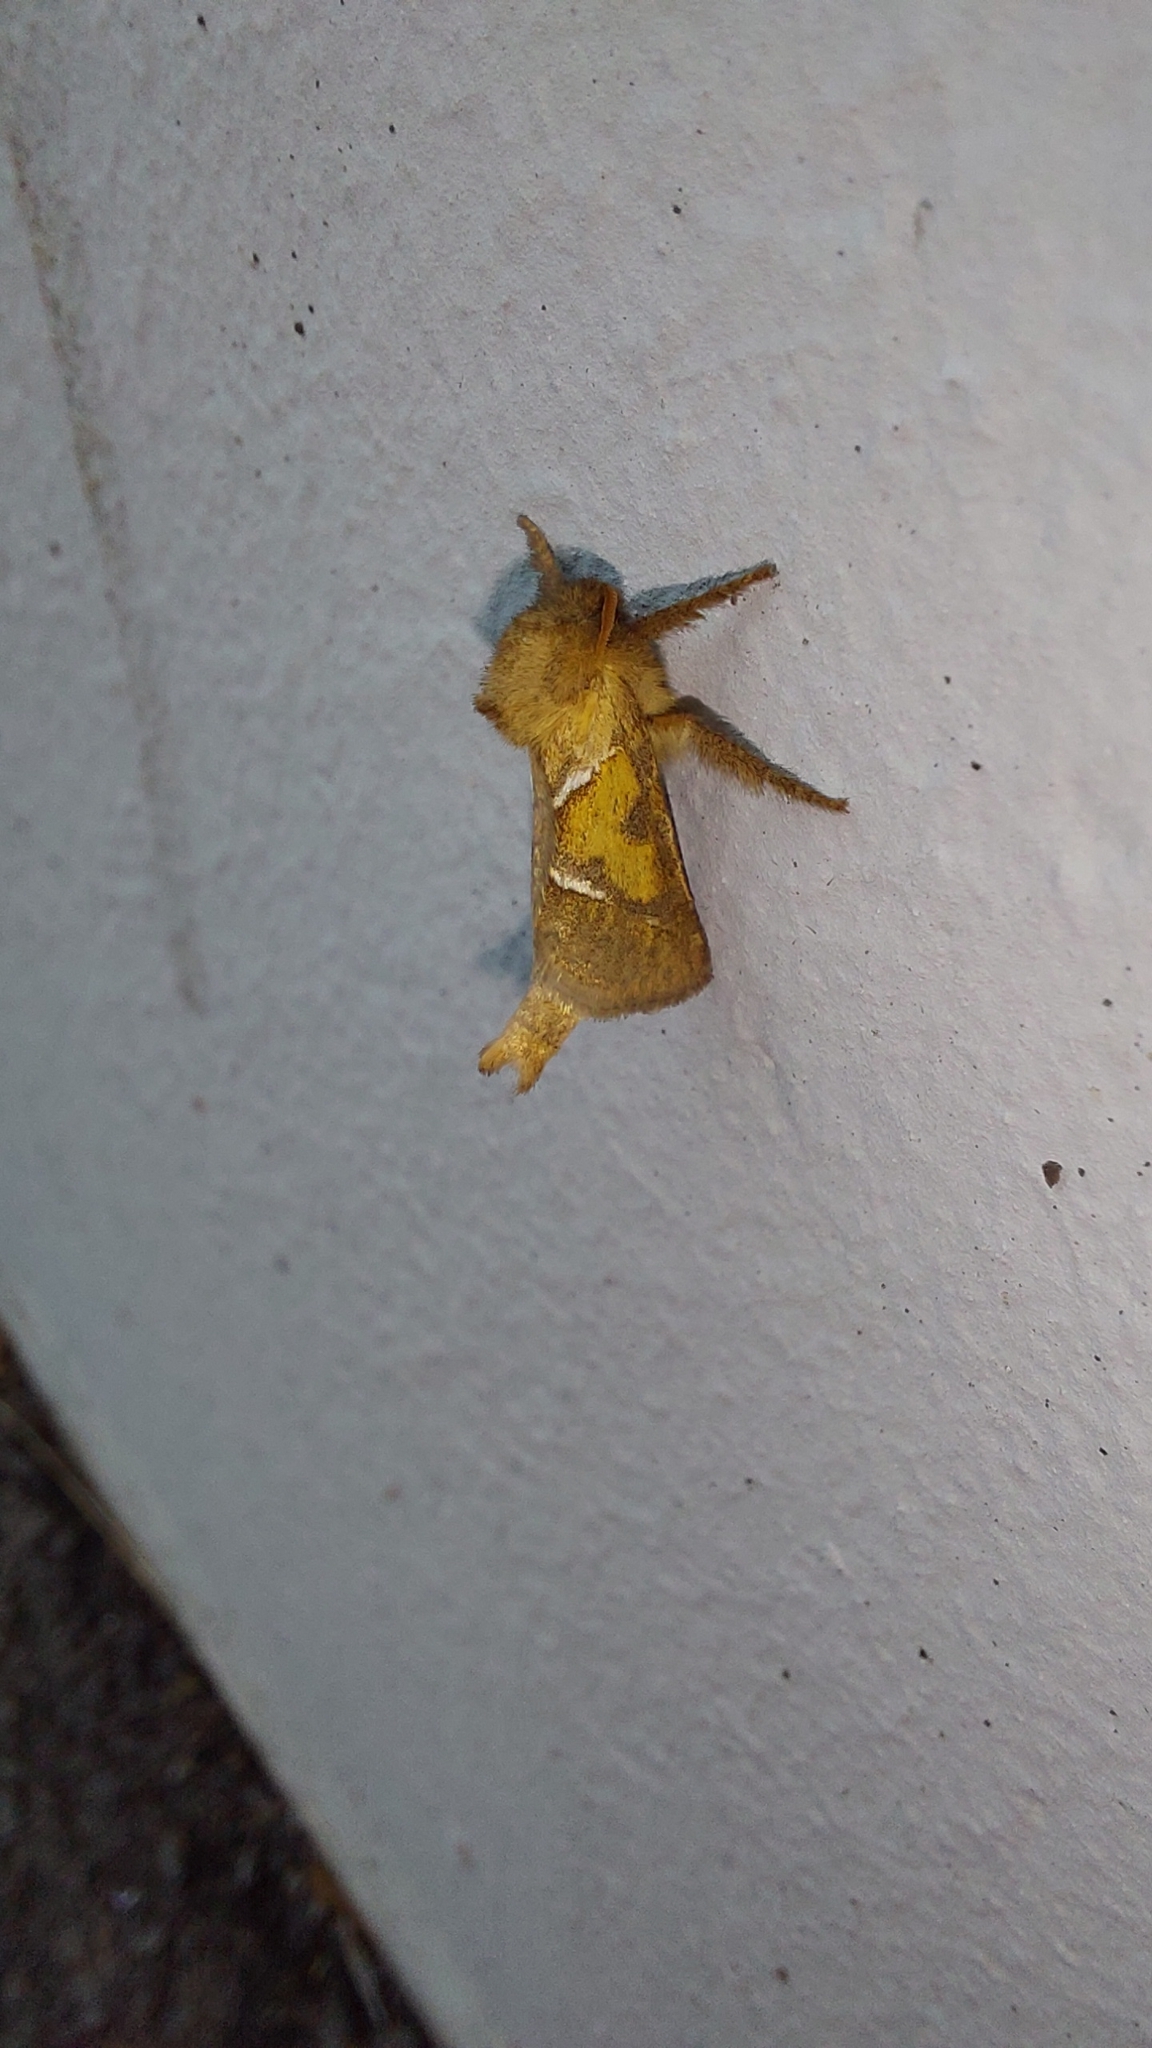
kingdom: Animalia
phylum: Arthropoda
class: Insecta
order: Lepidoptera
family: Hepialidae
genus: Triodia
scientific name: Triodia sylvina
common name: Orange swift
